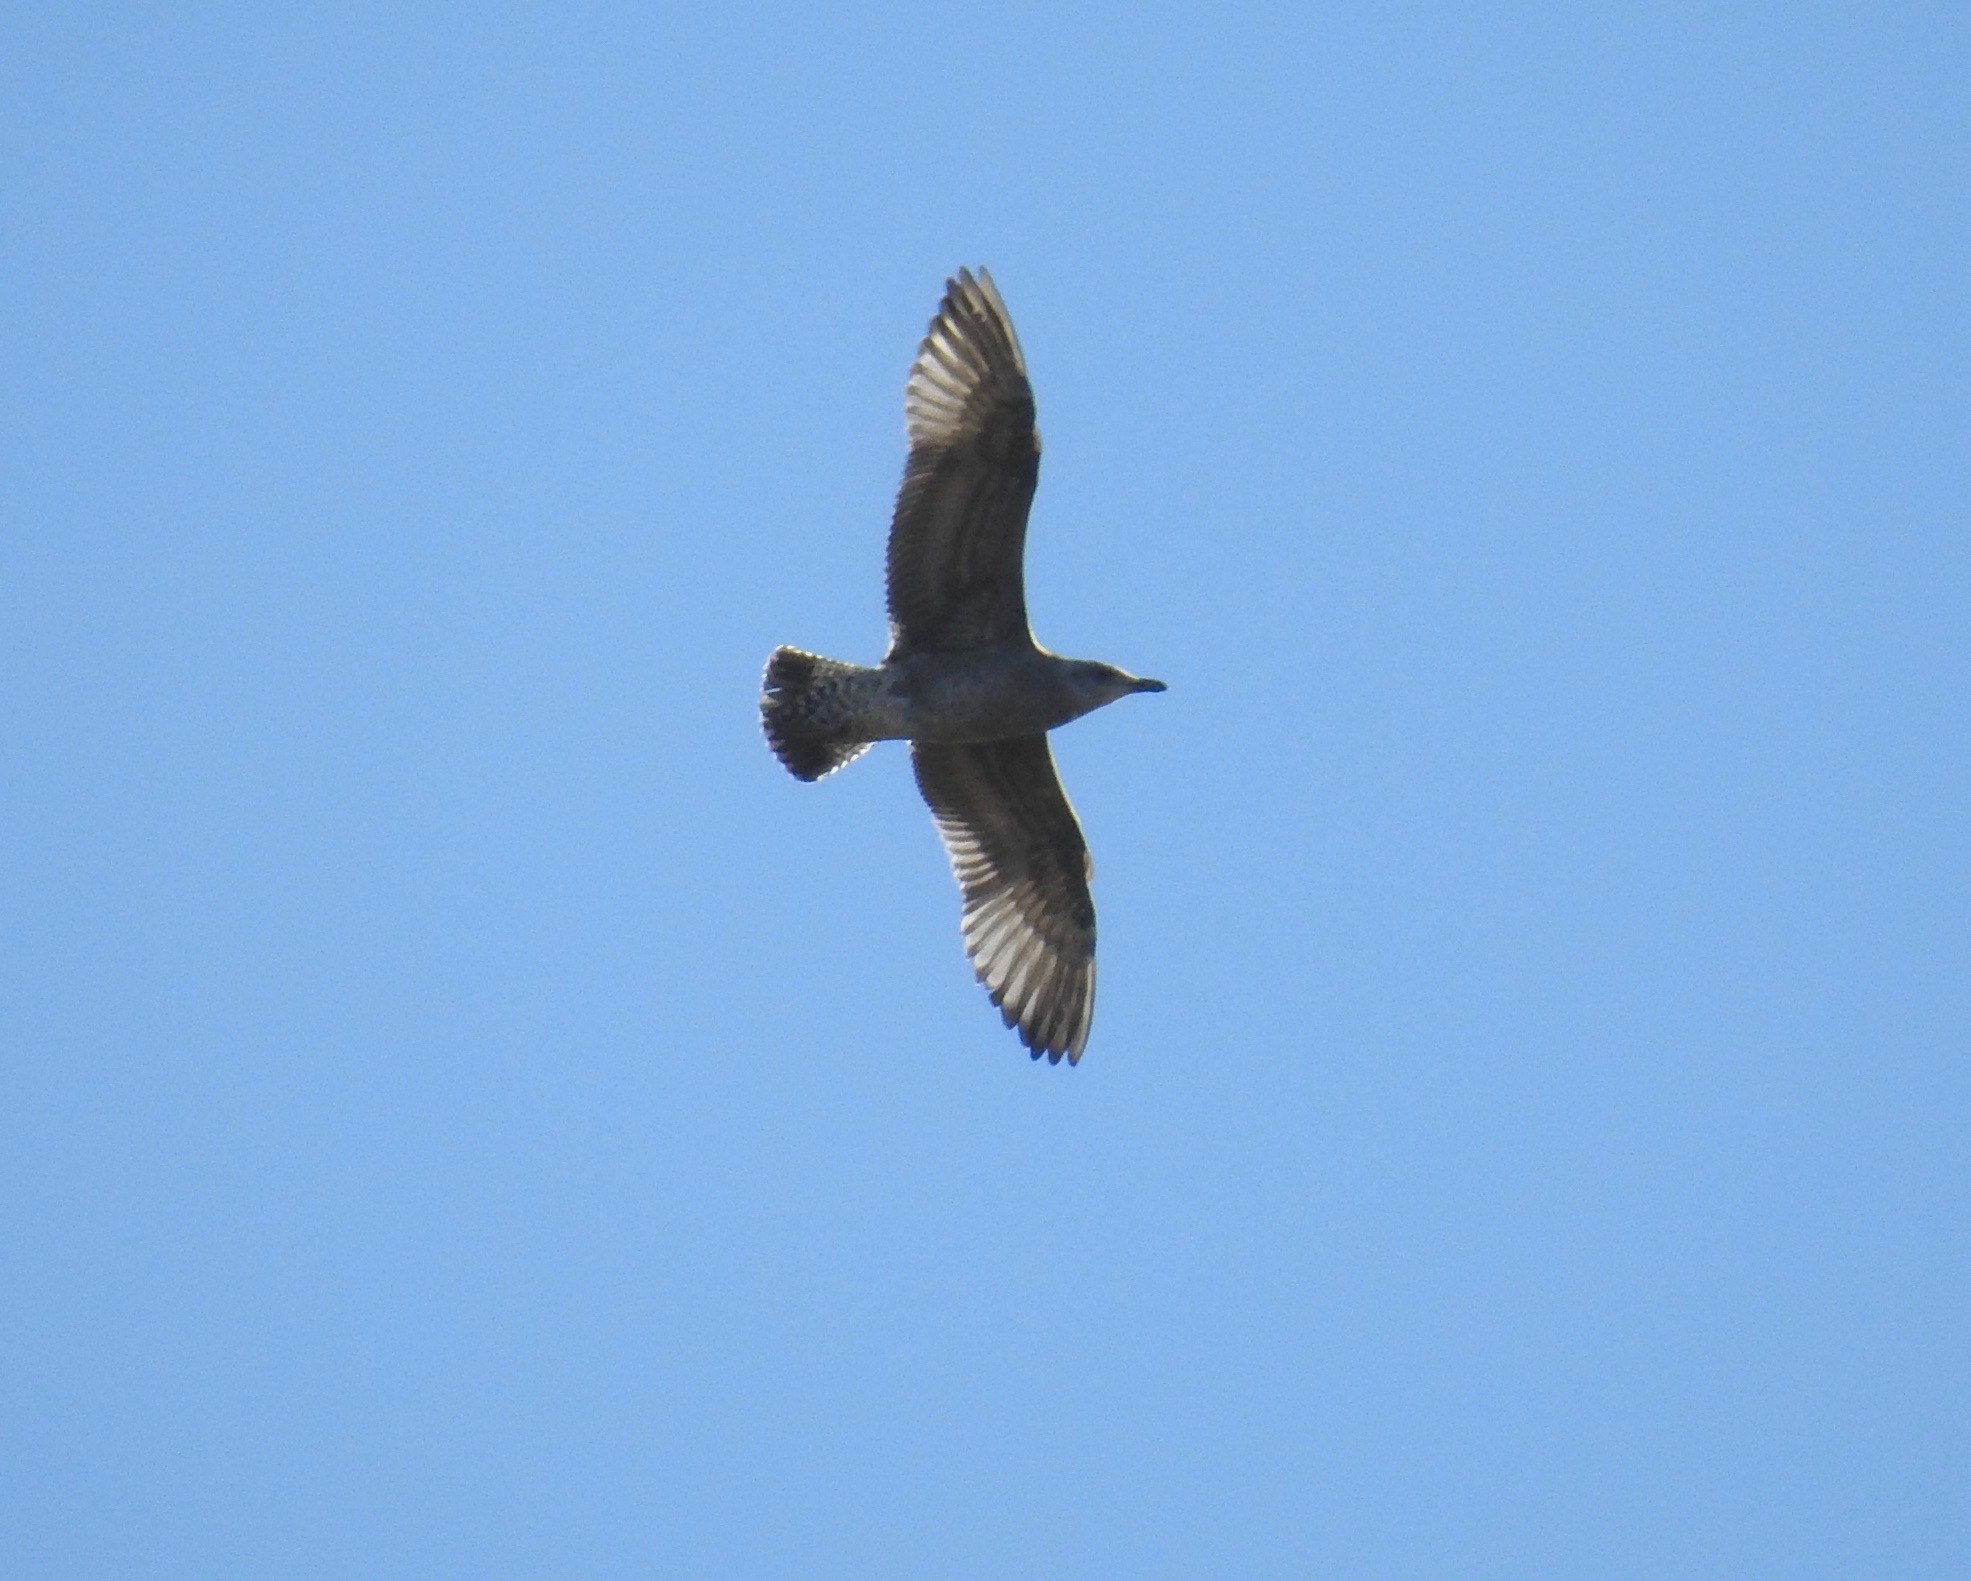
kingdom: Animalia
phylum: Chordata
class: Aves
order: Charadriiformes
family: Laridae
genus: Larus
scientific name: Larus argentatus
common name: Herring gull
